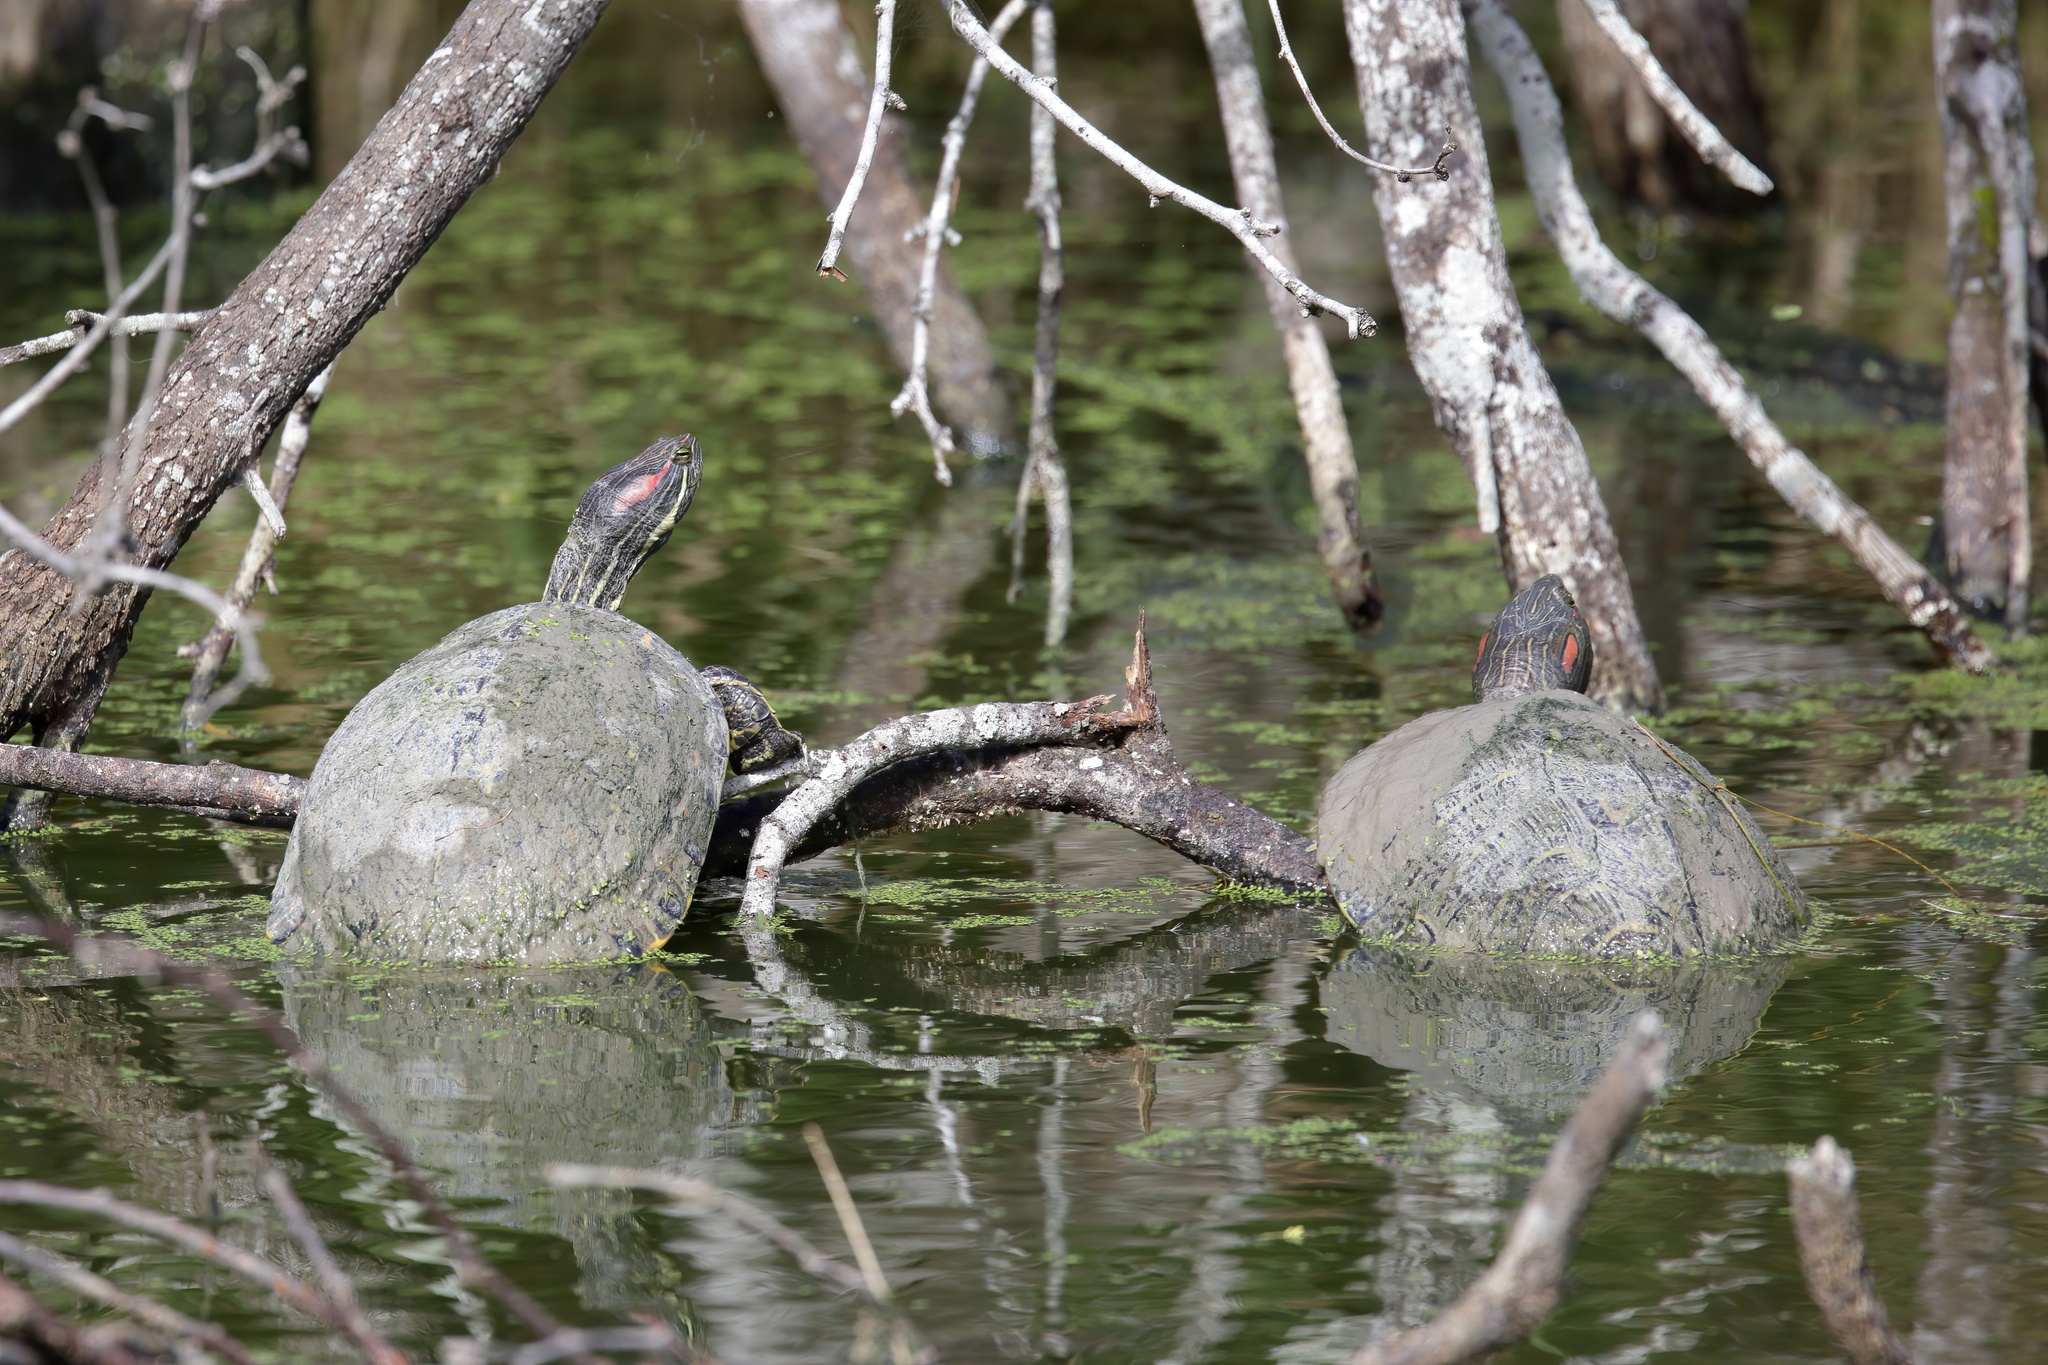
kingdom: Animalia
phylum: Chordata
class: Testudines
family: Emydidae
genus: Trachemys
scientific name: Trachemys scripta
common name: Slider
